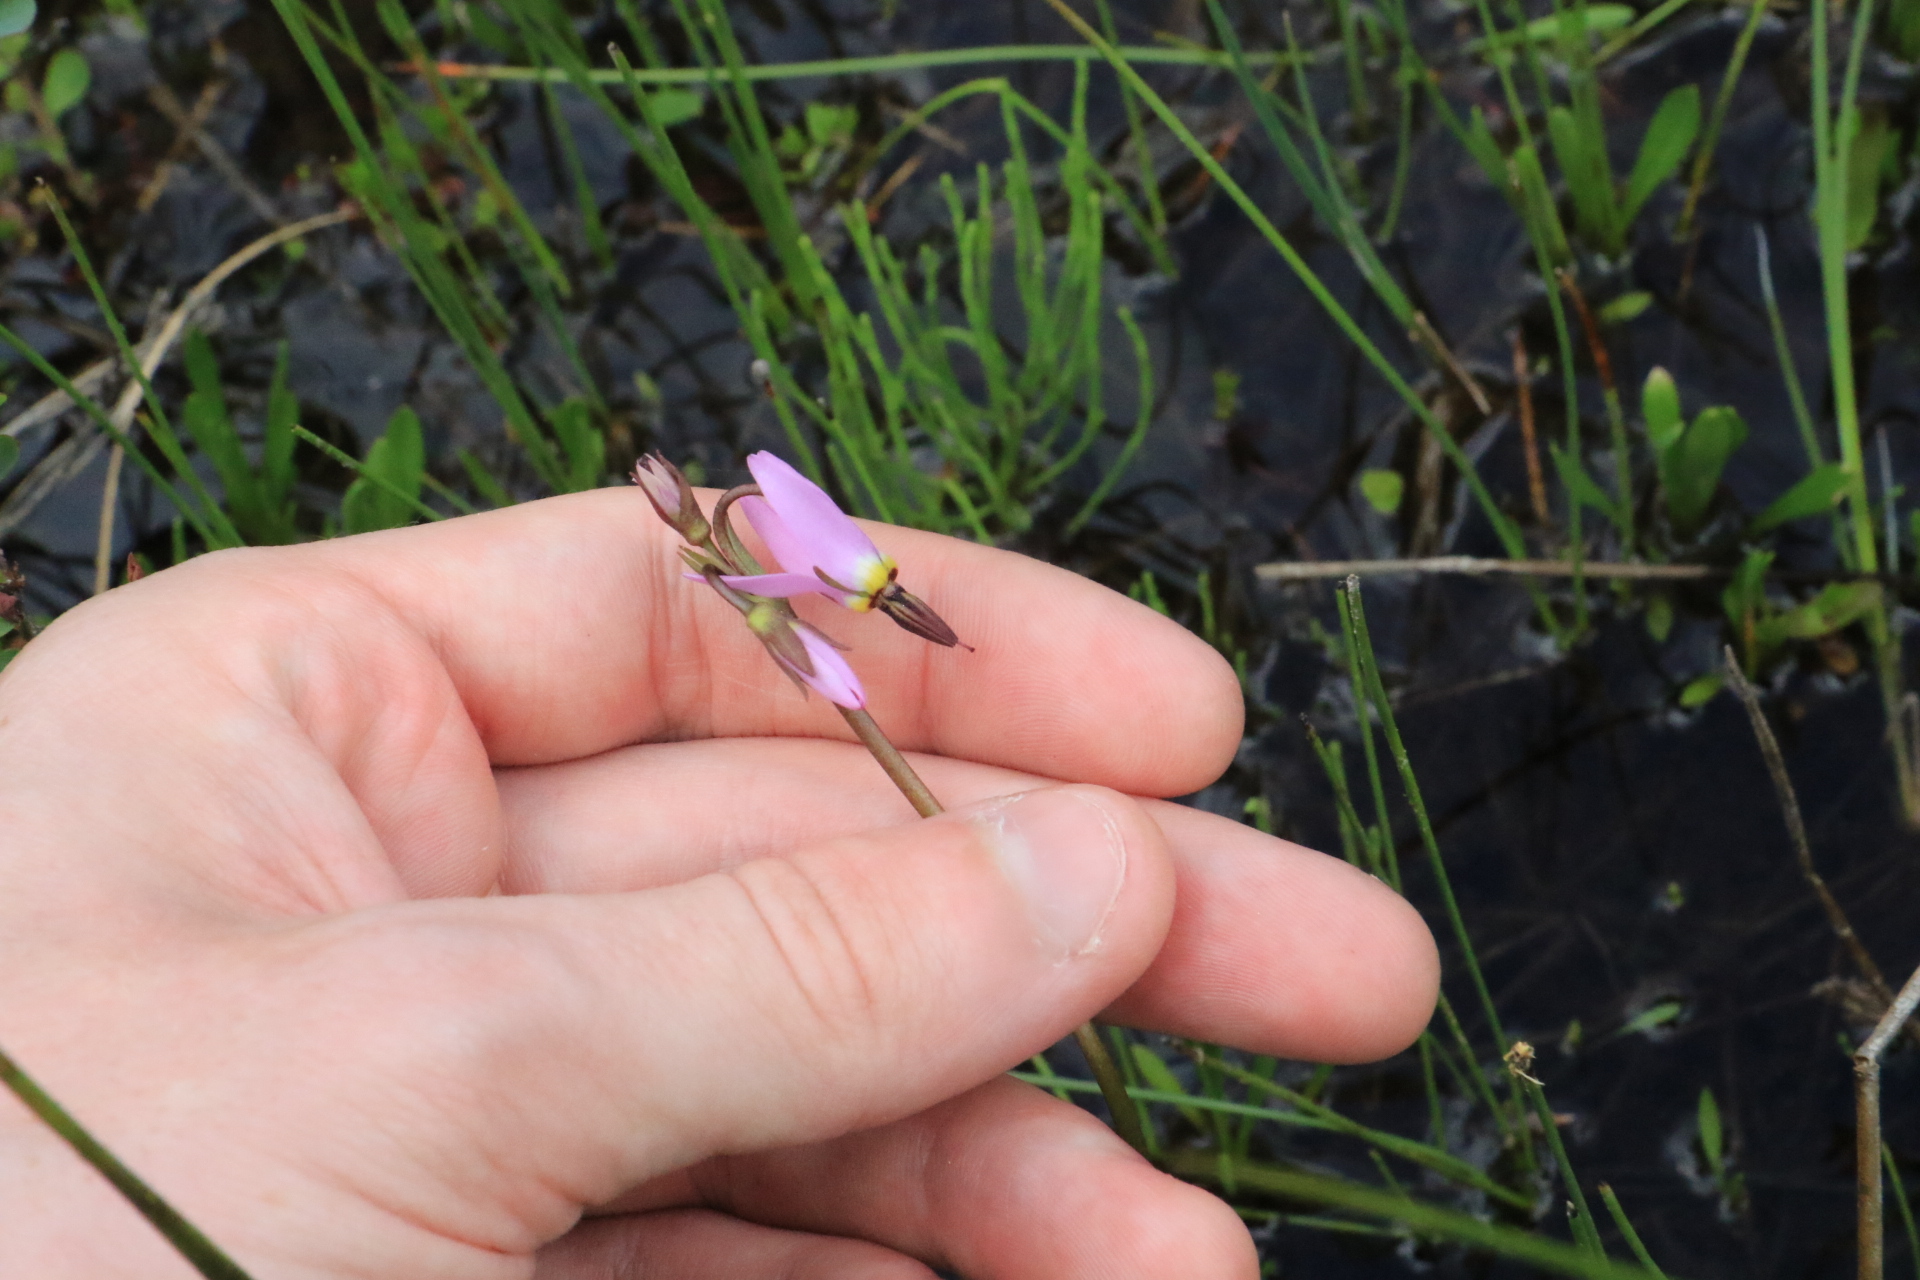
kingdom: Plantae
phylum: Tracheophyta
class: Magnoliopsida
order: Ericales
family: Primulaceae
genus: Dodecatheon
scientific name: Dodecatheon alpinum
